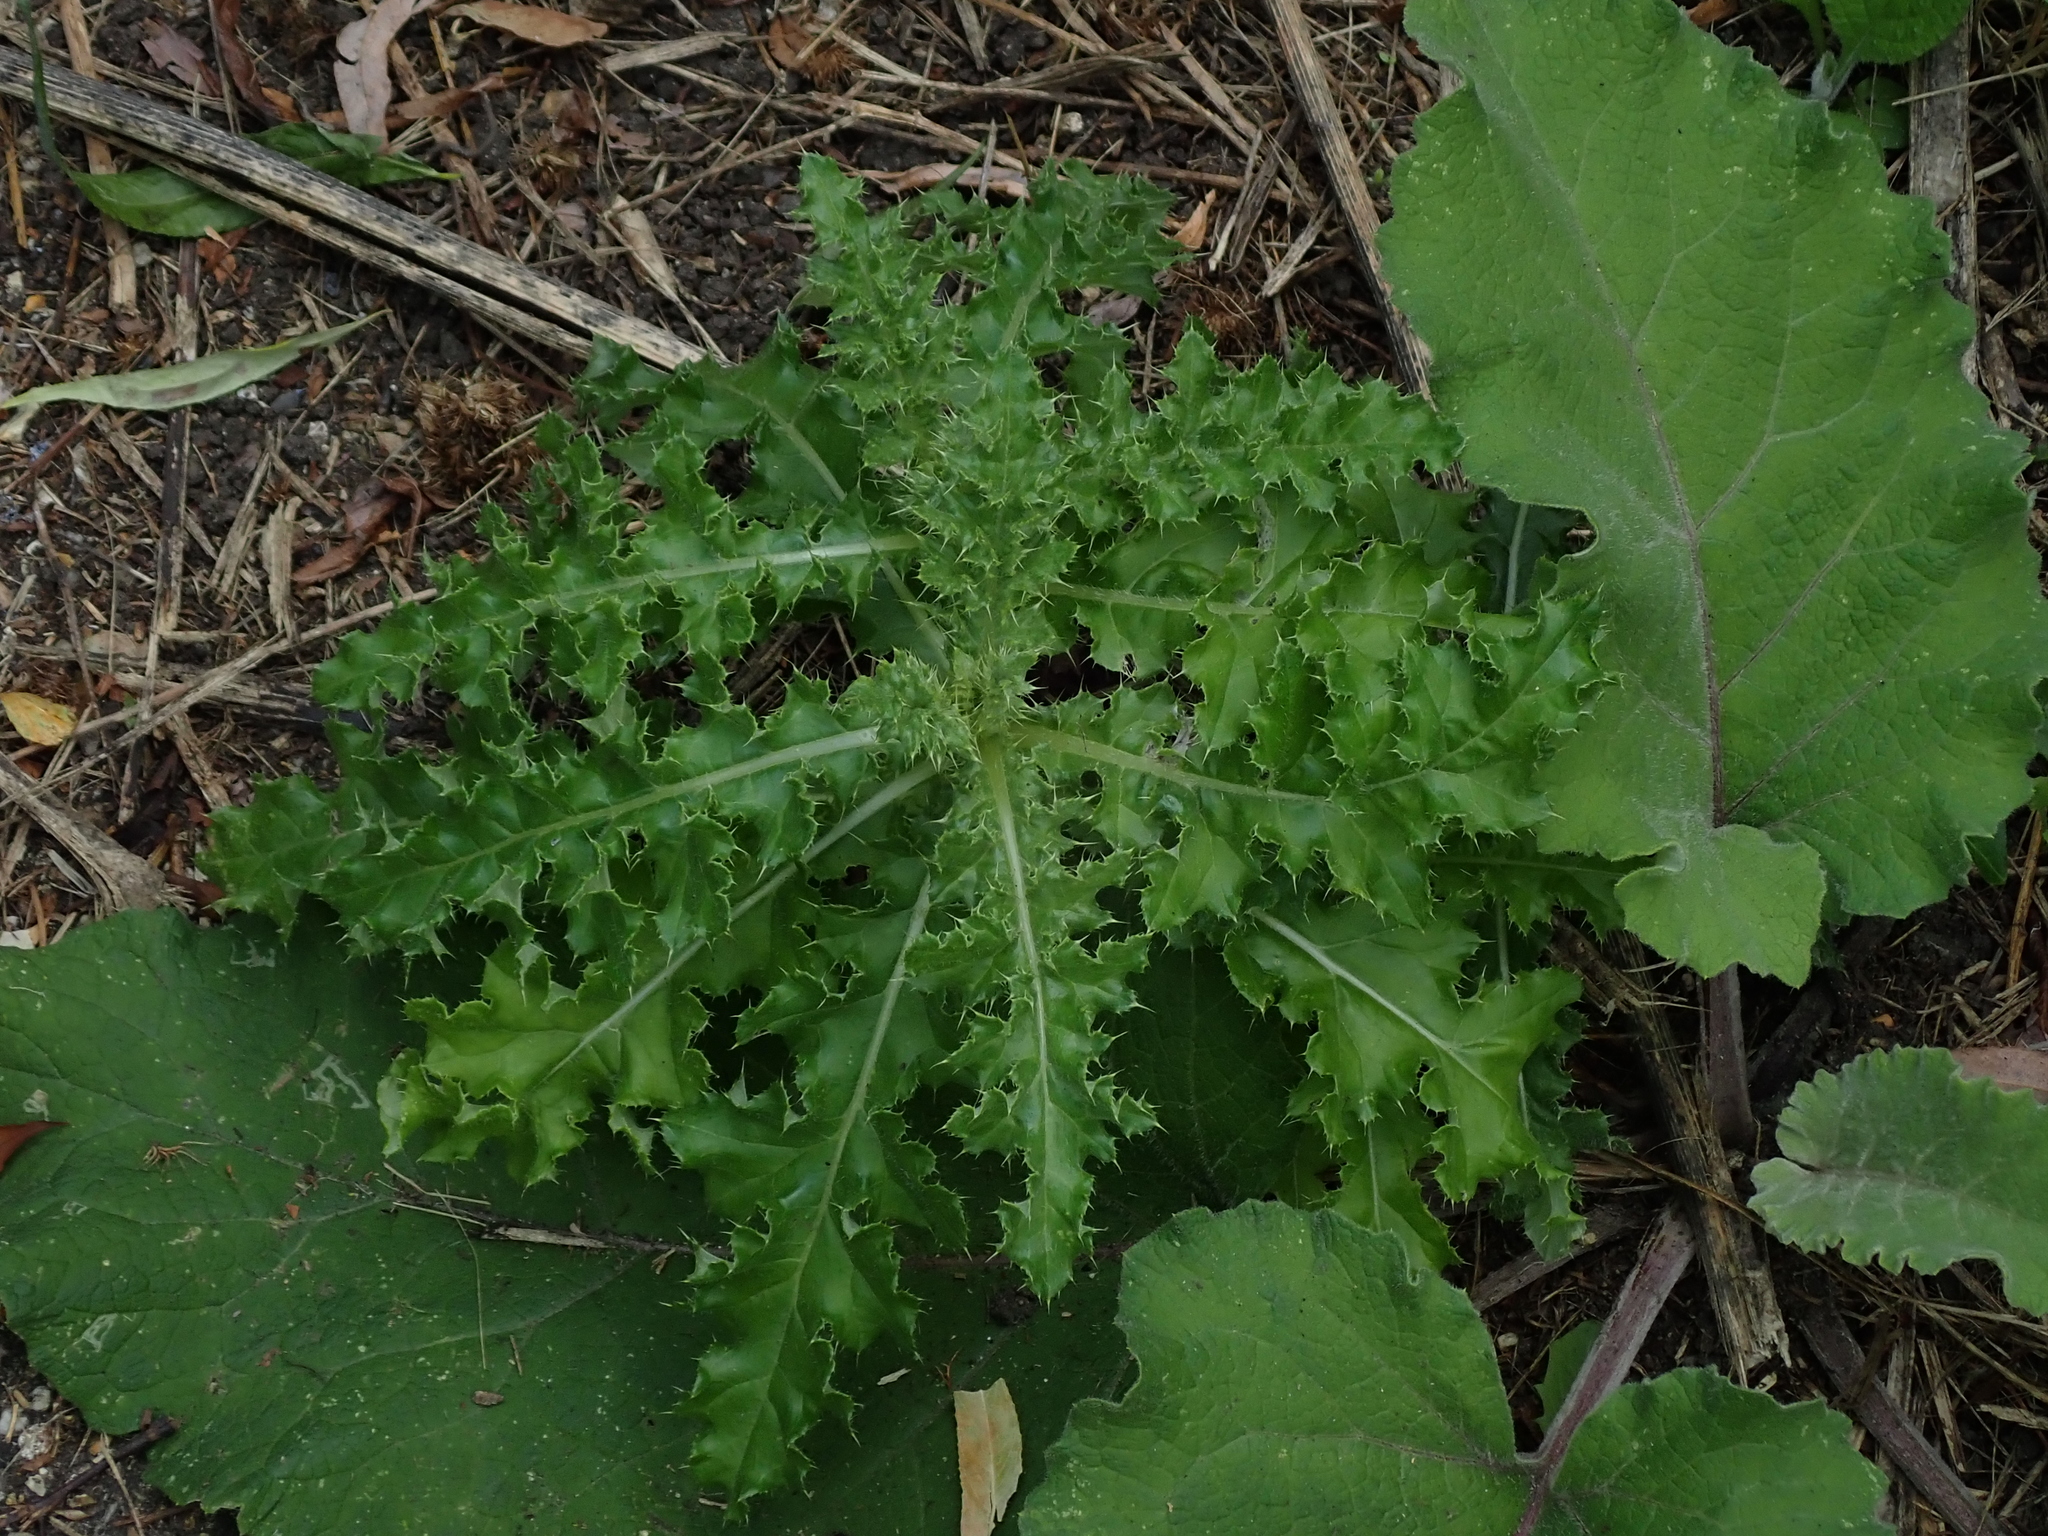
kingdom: Plantae
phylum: Tracheophyta
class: Magnoliopsida
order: Asterales
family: Asteraceae
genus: Cirsium
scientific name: Cirsium arvense
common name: Creeping thistle
